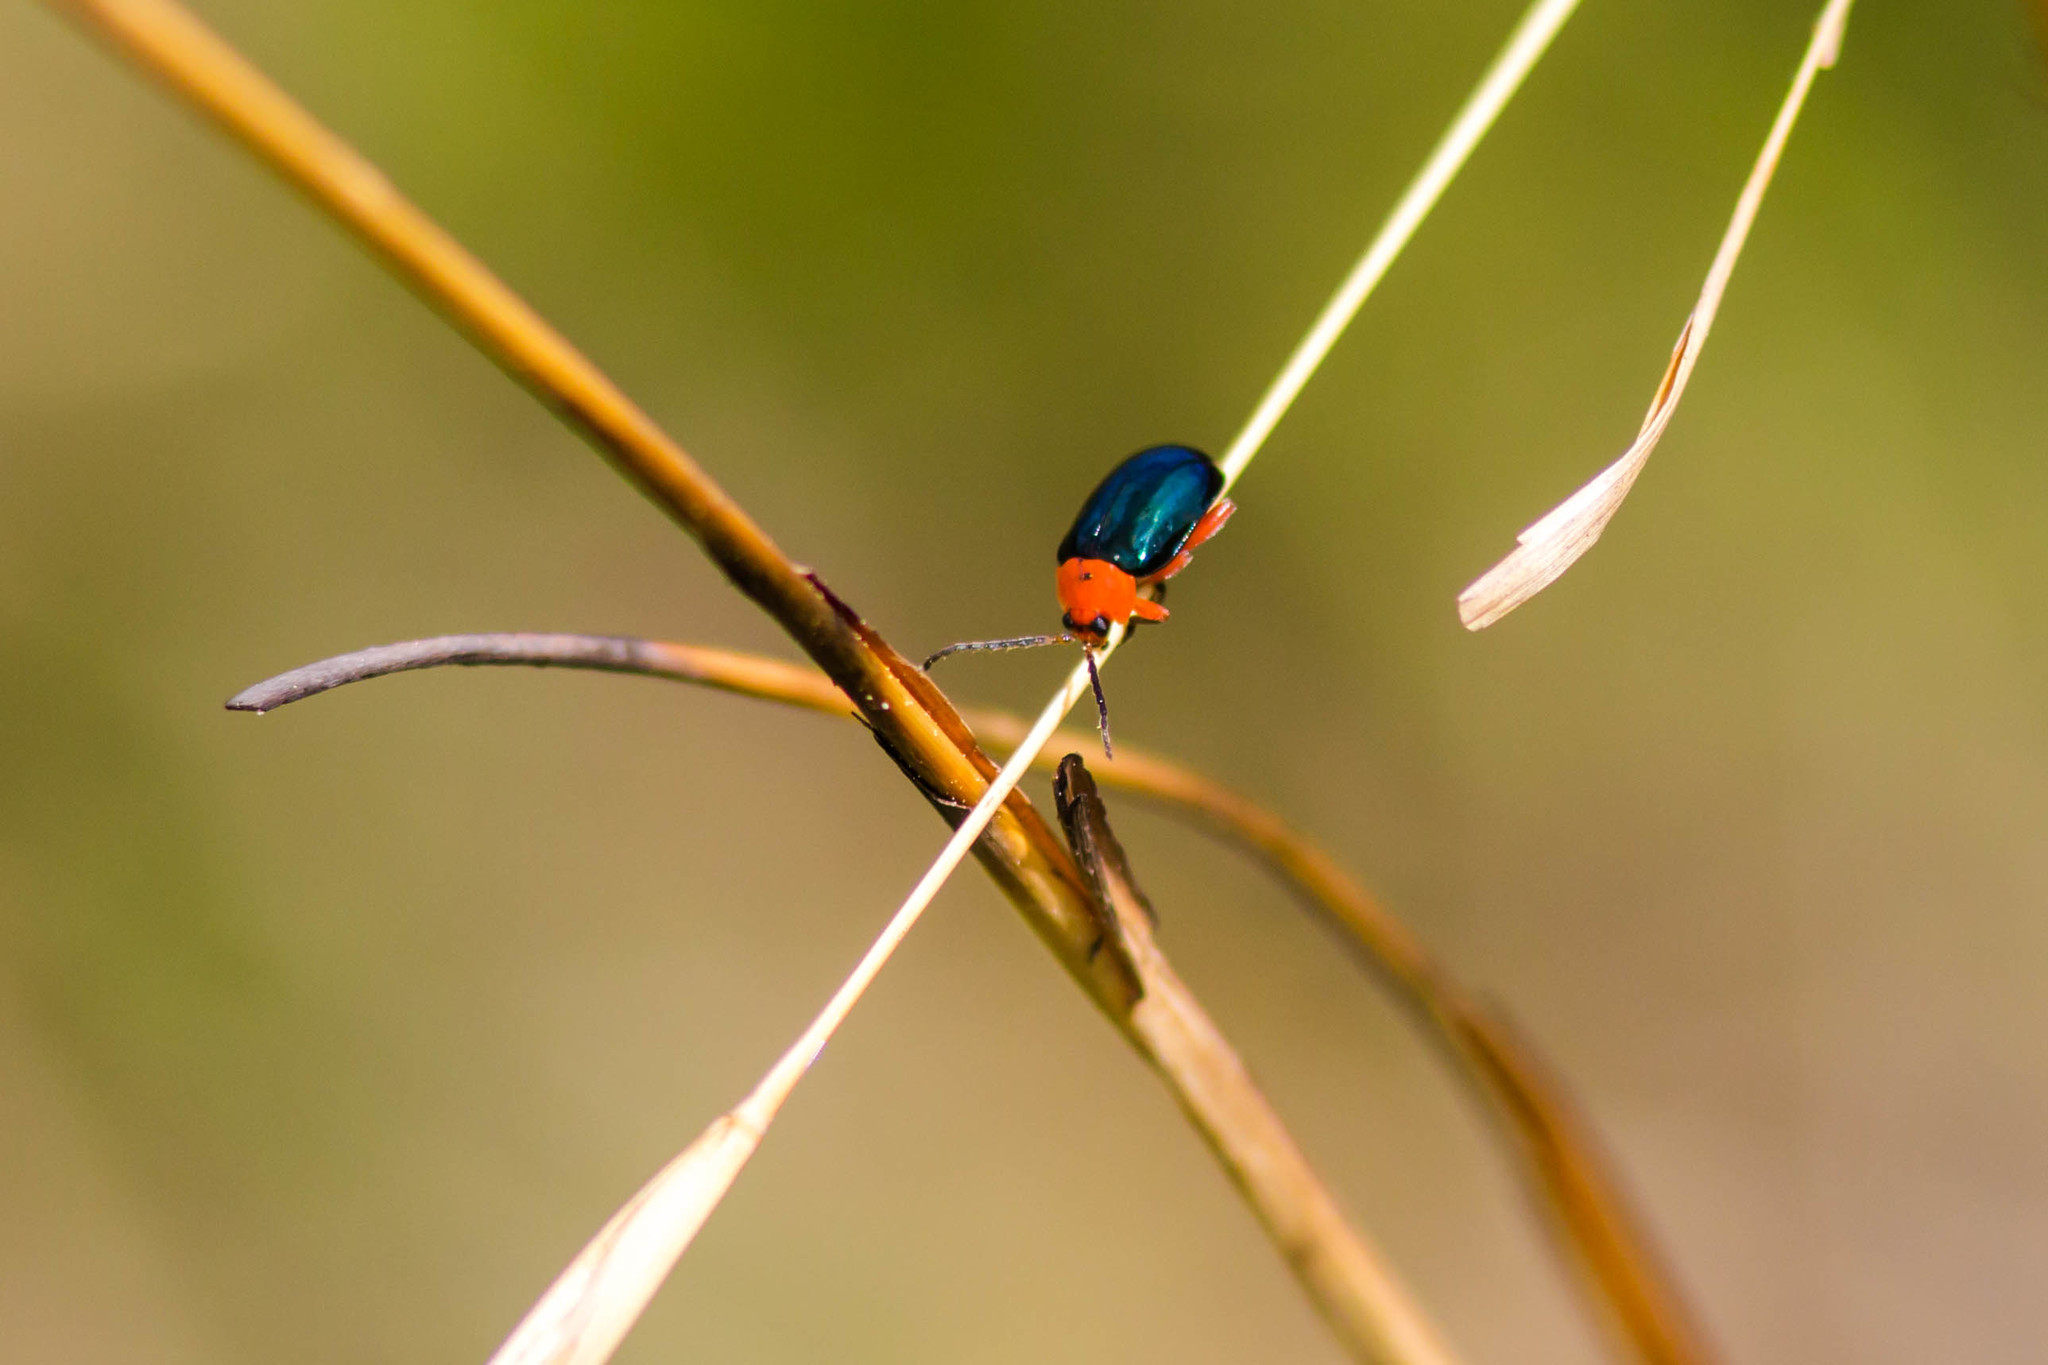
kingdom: Animalia
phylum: Arthropoda
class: Insecta
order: Coleoptera
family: Chrysomelidae
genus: Asphaera
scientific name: Asphaera lustrans
